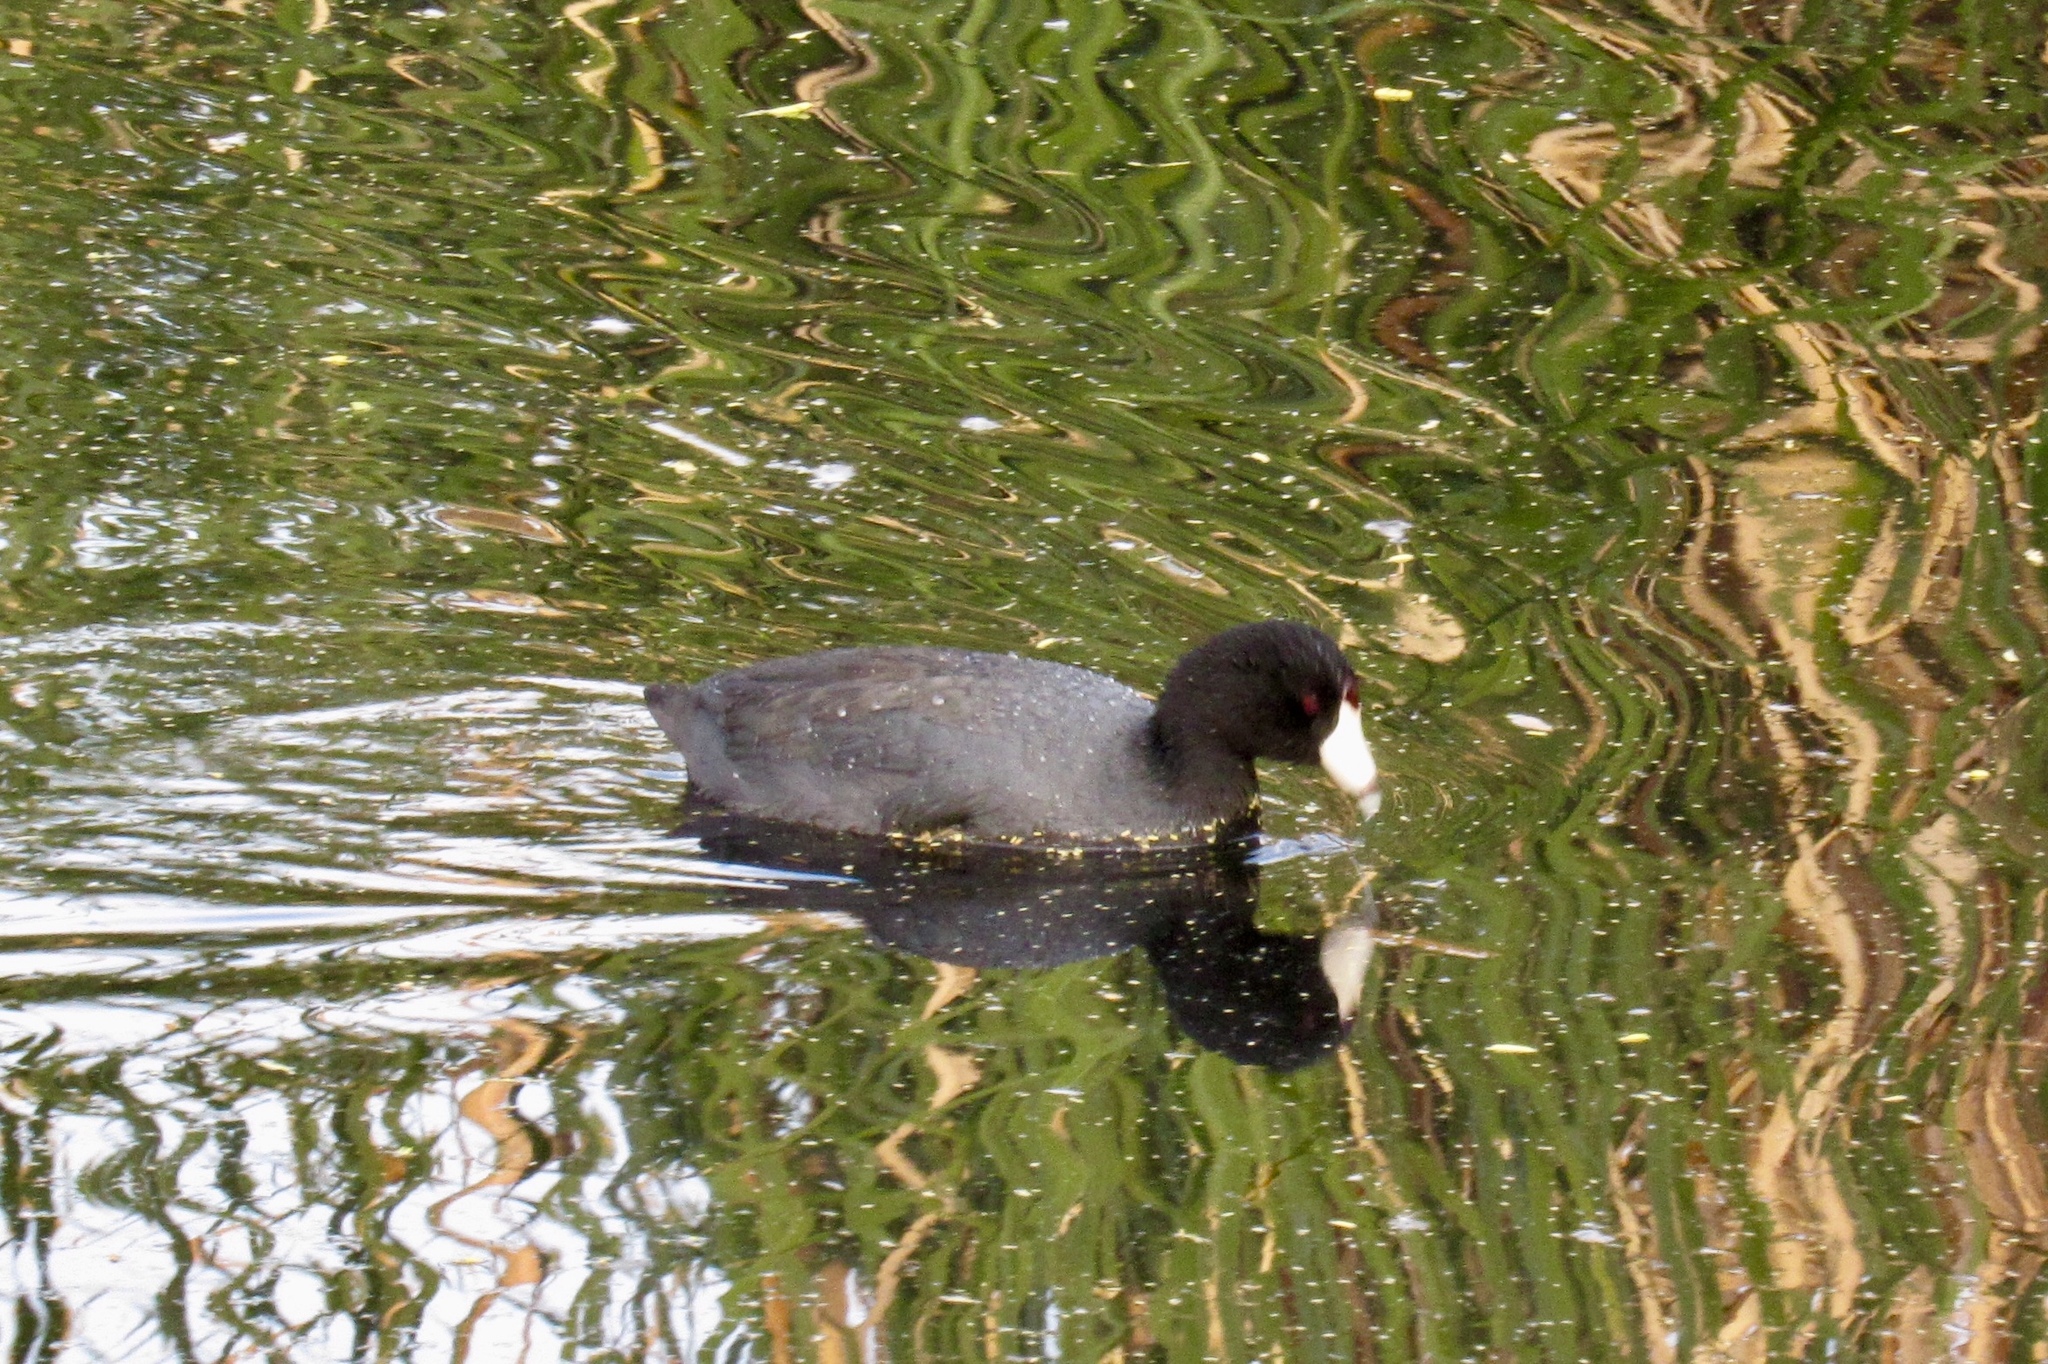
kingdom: Animalia
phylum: Chordata
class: Aves
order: Gruiformes
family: Rallidae
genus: Fulica
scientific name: Fulica americana
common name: American coot
